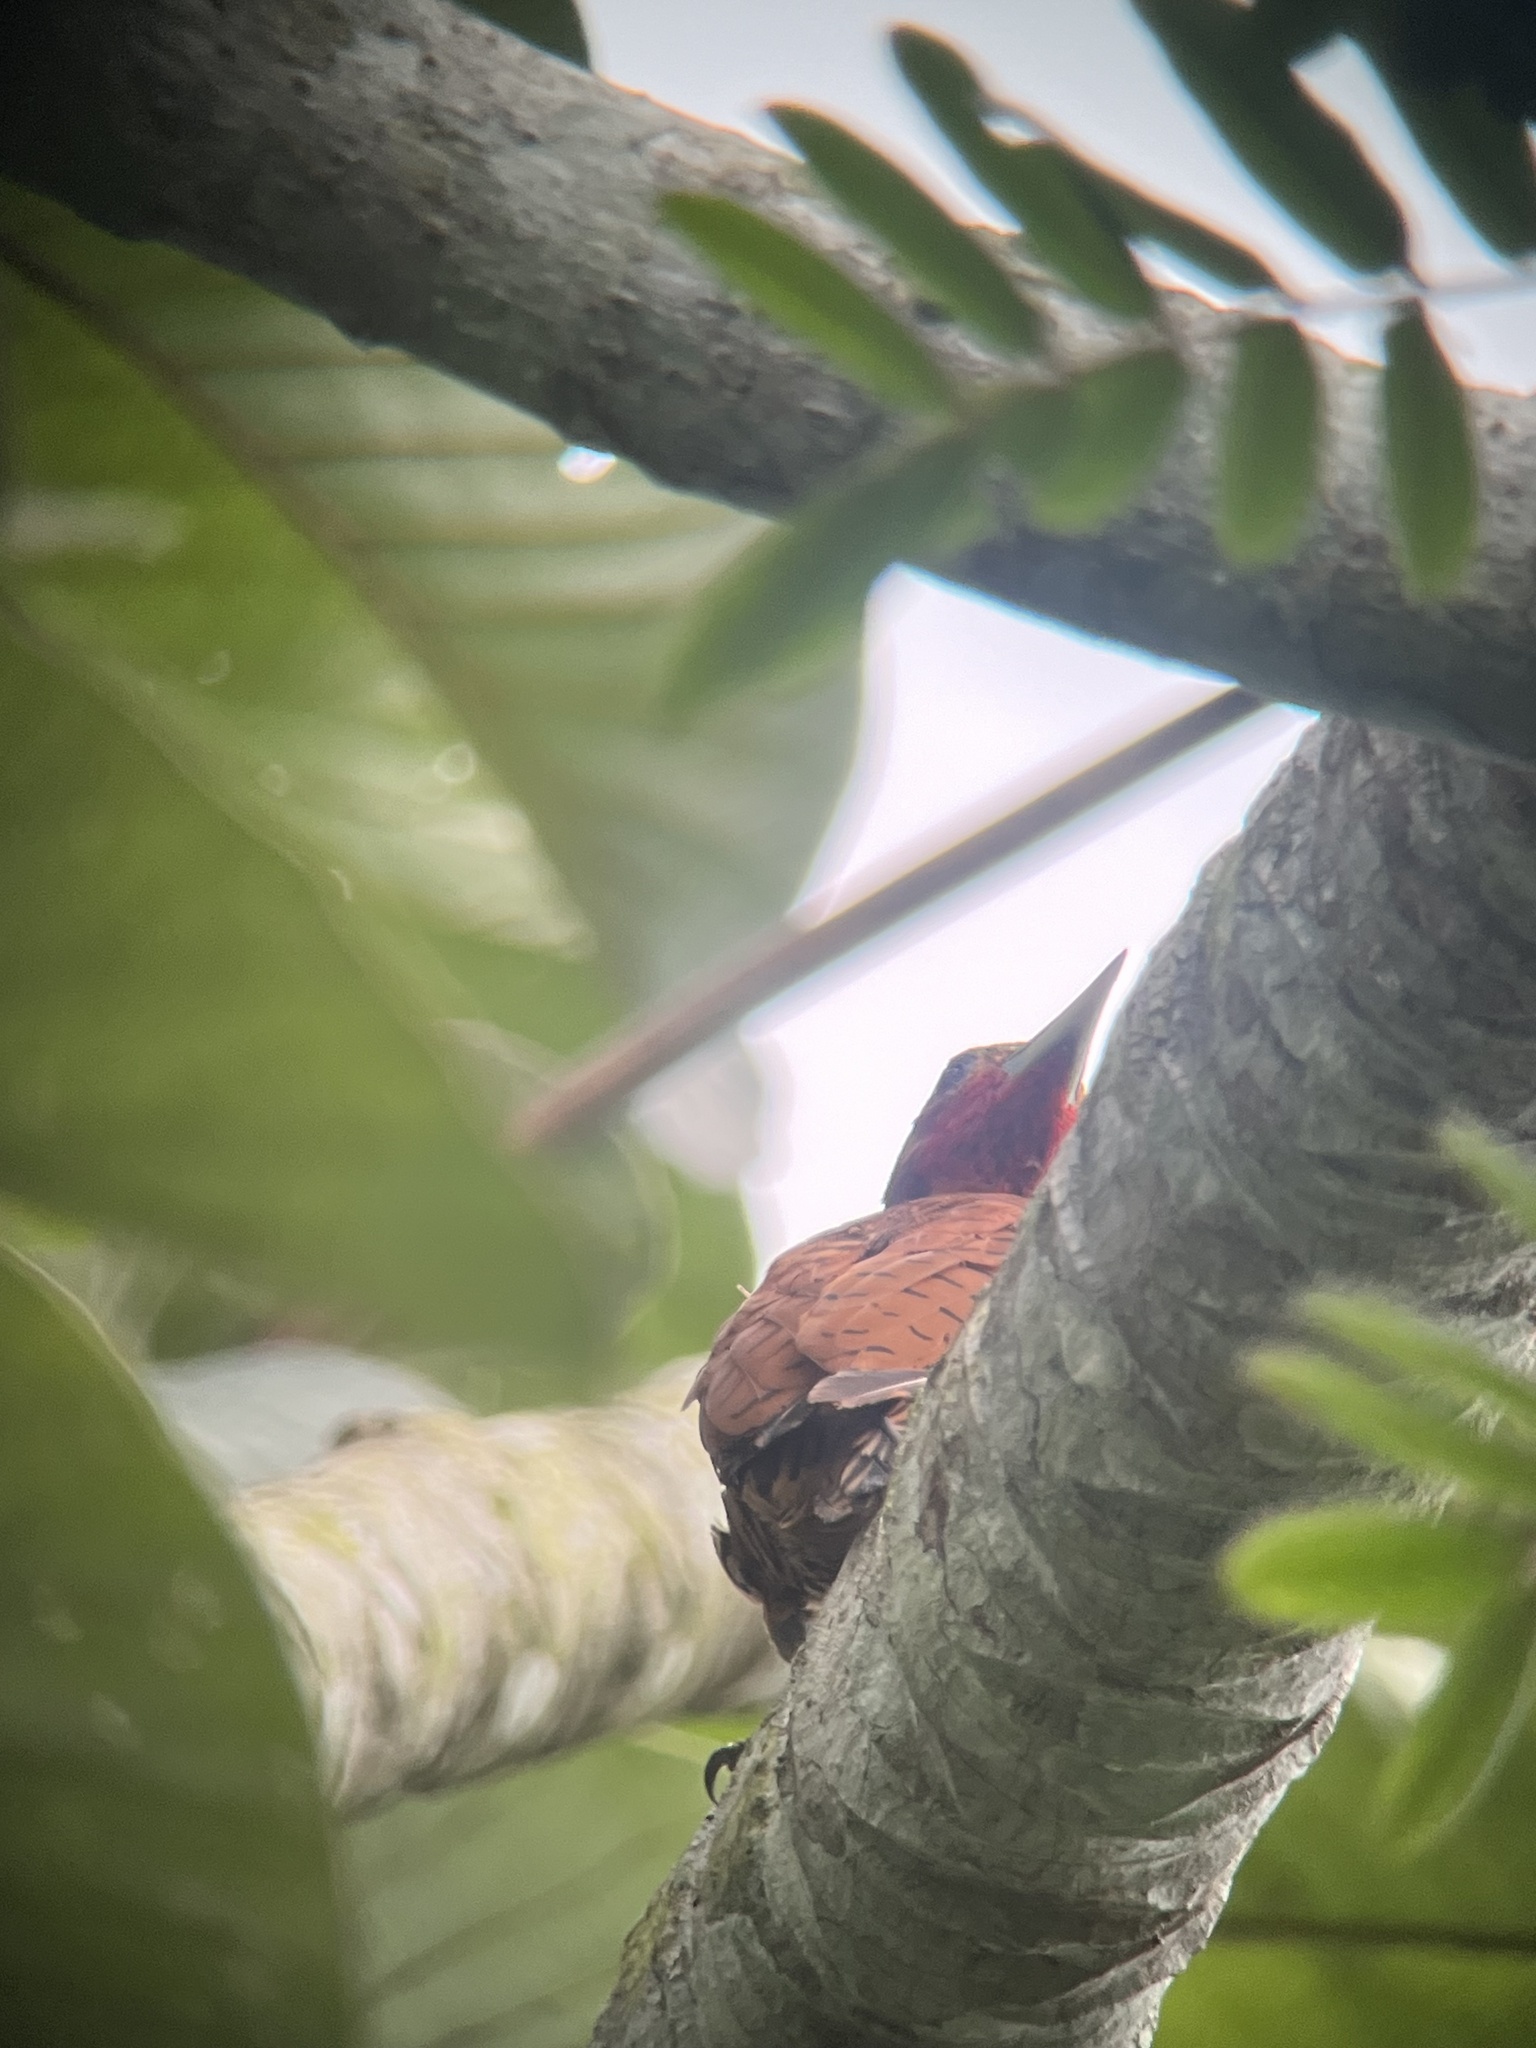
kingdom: Animalia
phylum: Chordata
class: Aves
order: Piciformes
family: Picidae
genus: Celeus
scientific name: Celeus loricatus
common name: Cinnamon woodpecker
